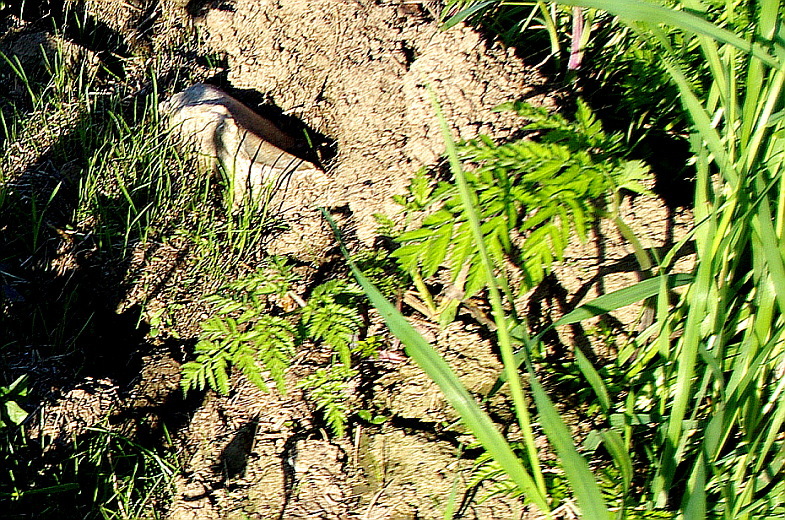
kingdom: Plantae
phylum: Tracheophyta
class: Magnoliopsida
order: Apiales
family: Apiaceae
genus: Anthriscus
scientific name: Anthriscus sylvestris
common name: Cow parsley
